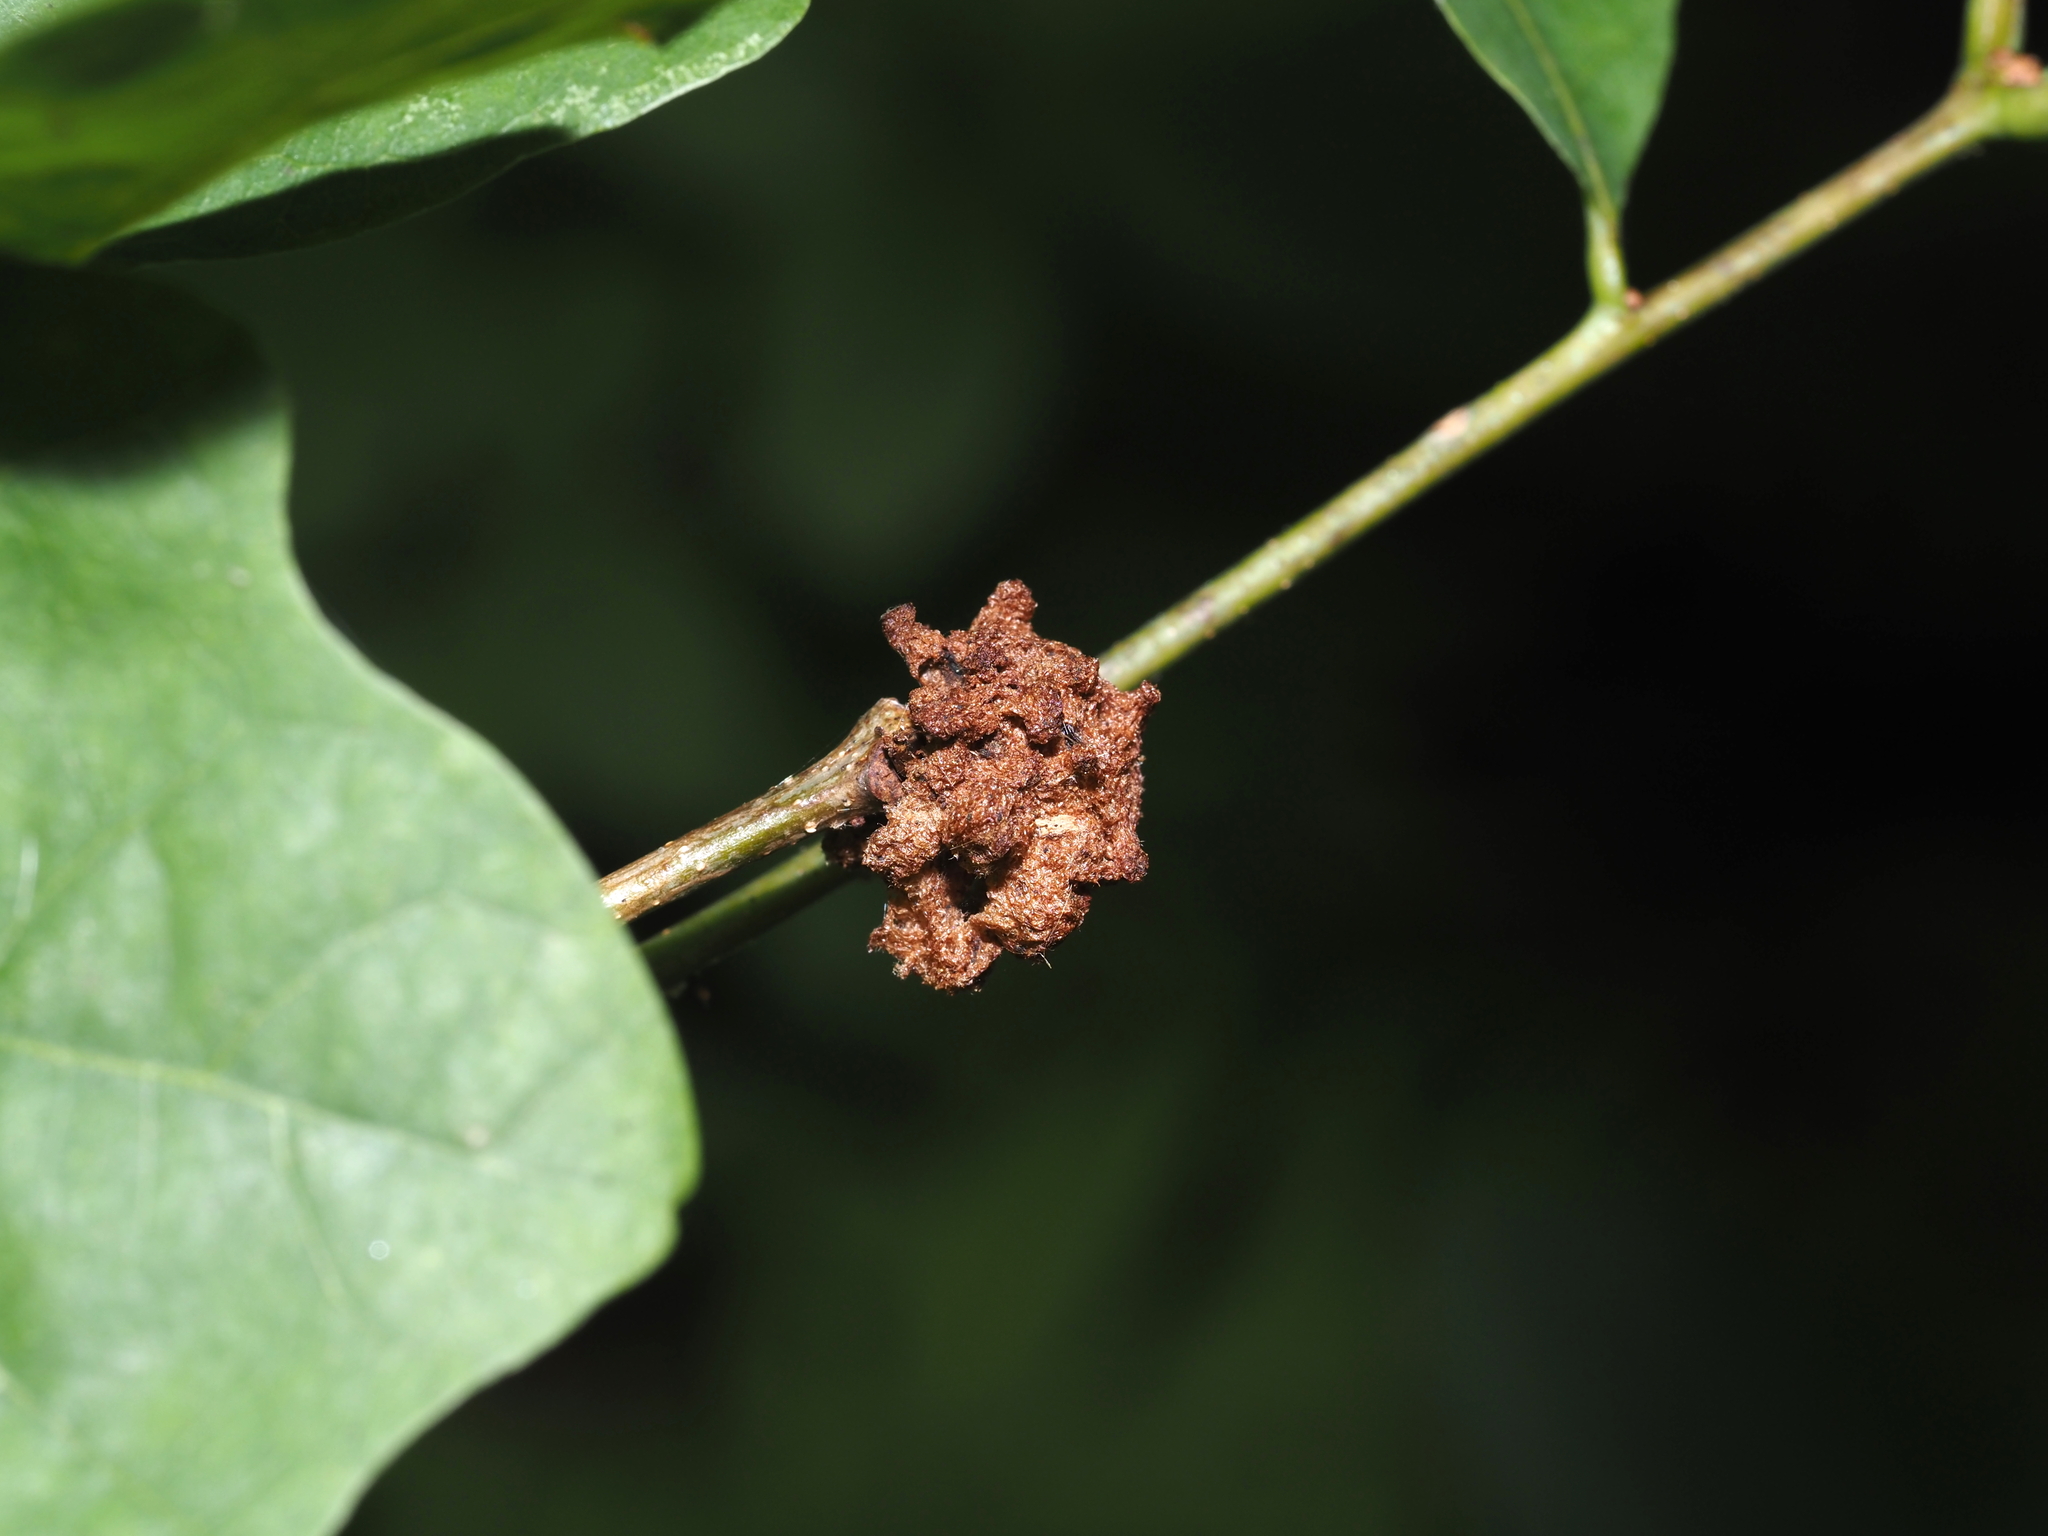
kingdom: Animalia
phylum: Arthropoda
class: Insecta
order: Hymenoptera
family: Cynipidae
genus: Callirhytis
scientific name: Callirhytis
